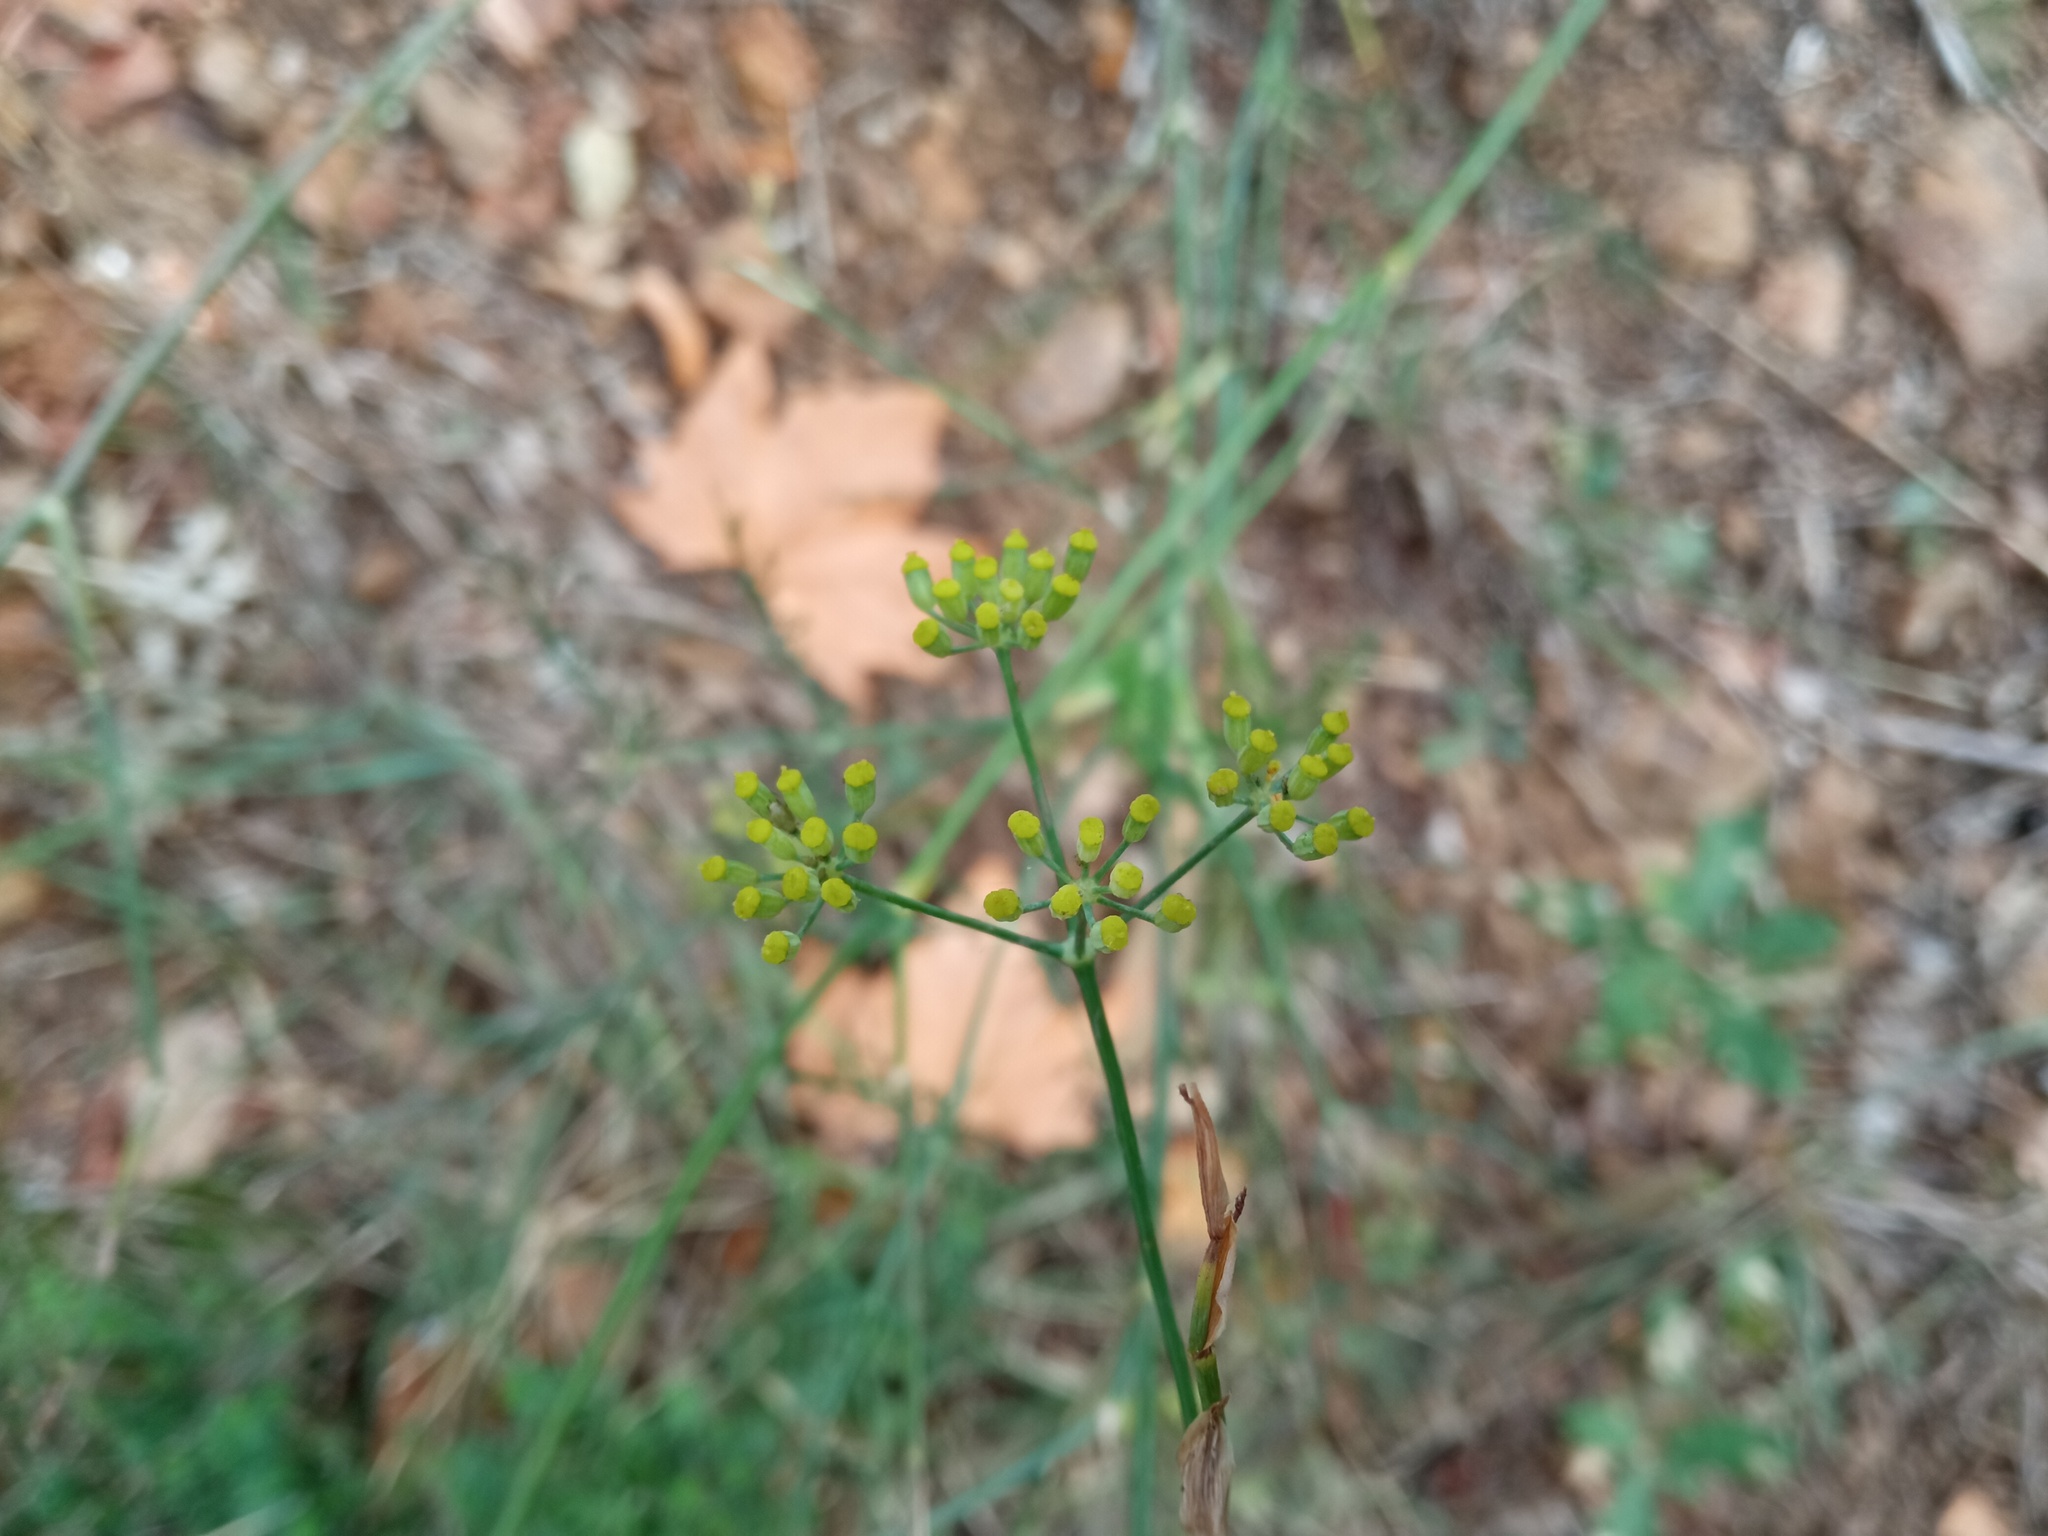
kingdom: Plantae
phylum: Tracheophyta
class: Magnoliopsida
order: Apiales
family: Apiaceae
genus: Foeniculum
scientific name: Foeniculum vulgare
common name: Fennel
